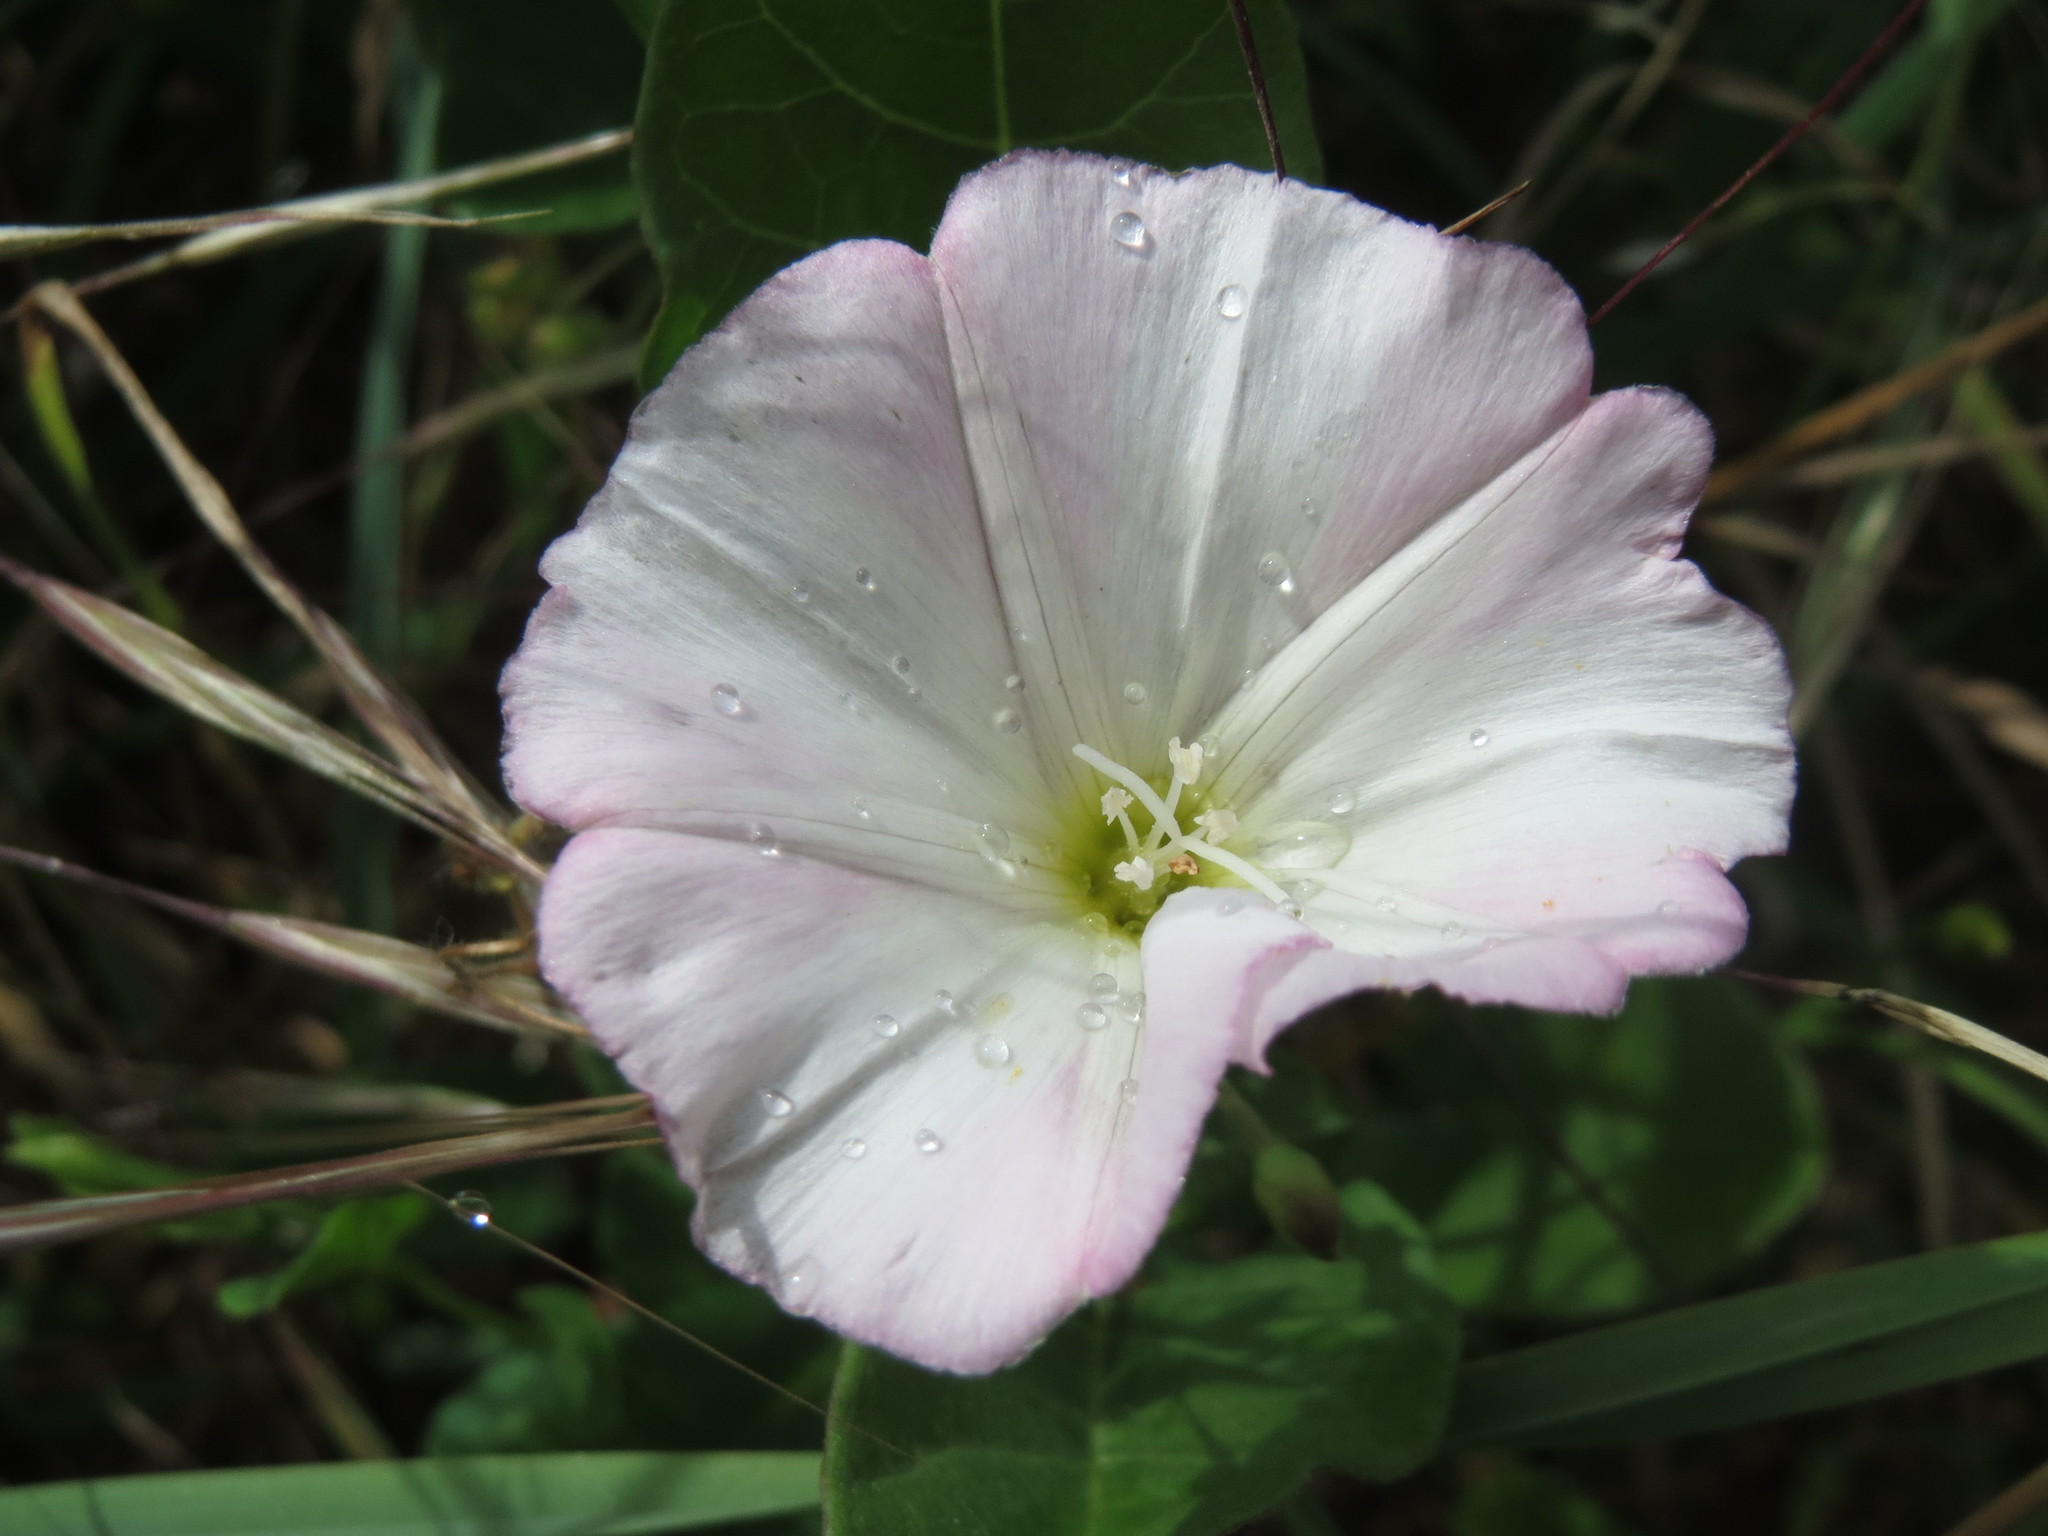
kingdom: Plantae
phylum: Tracheophyta
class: Magnoliopsida
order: Solanales
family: Convolvulaceae
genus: Convolvulus
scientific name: Convolvulus arvensis
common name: Field bindweed
